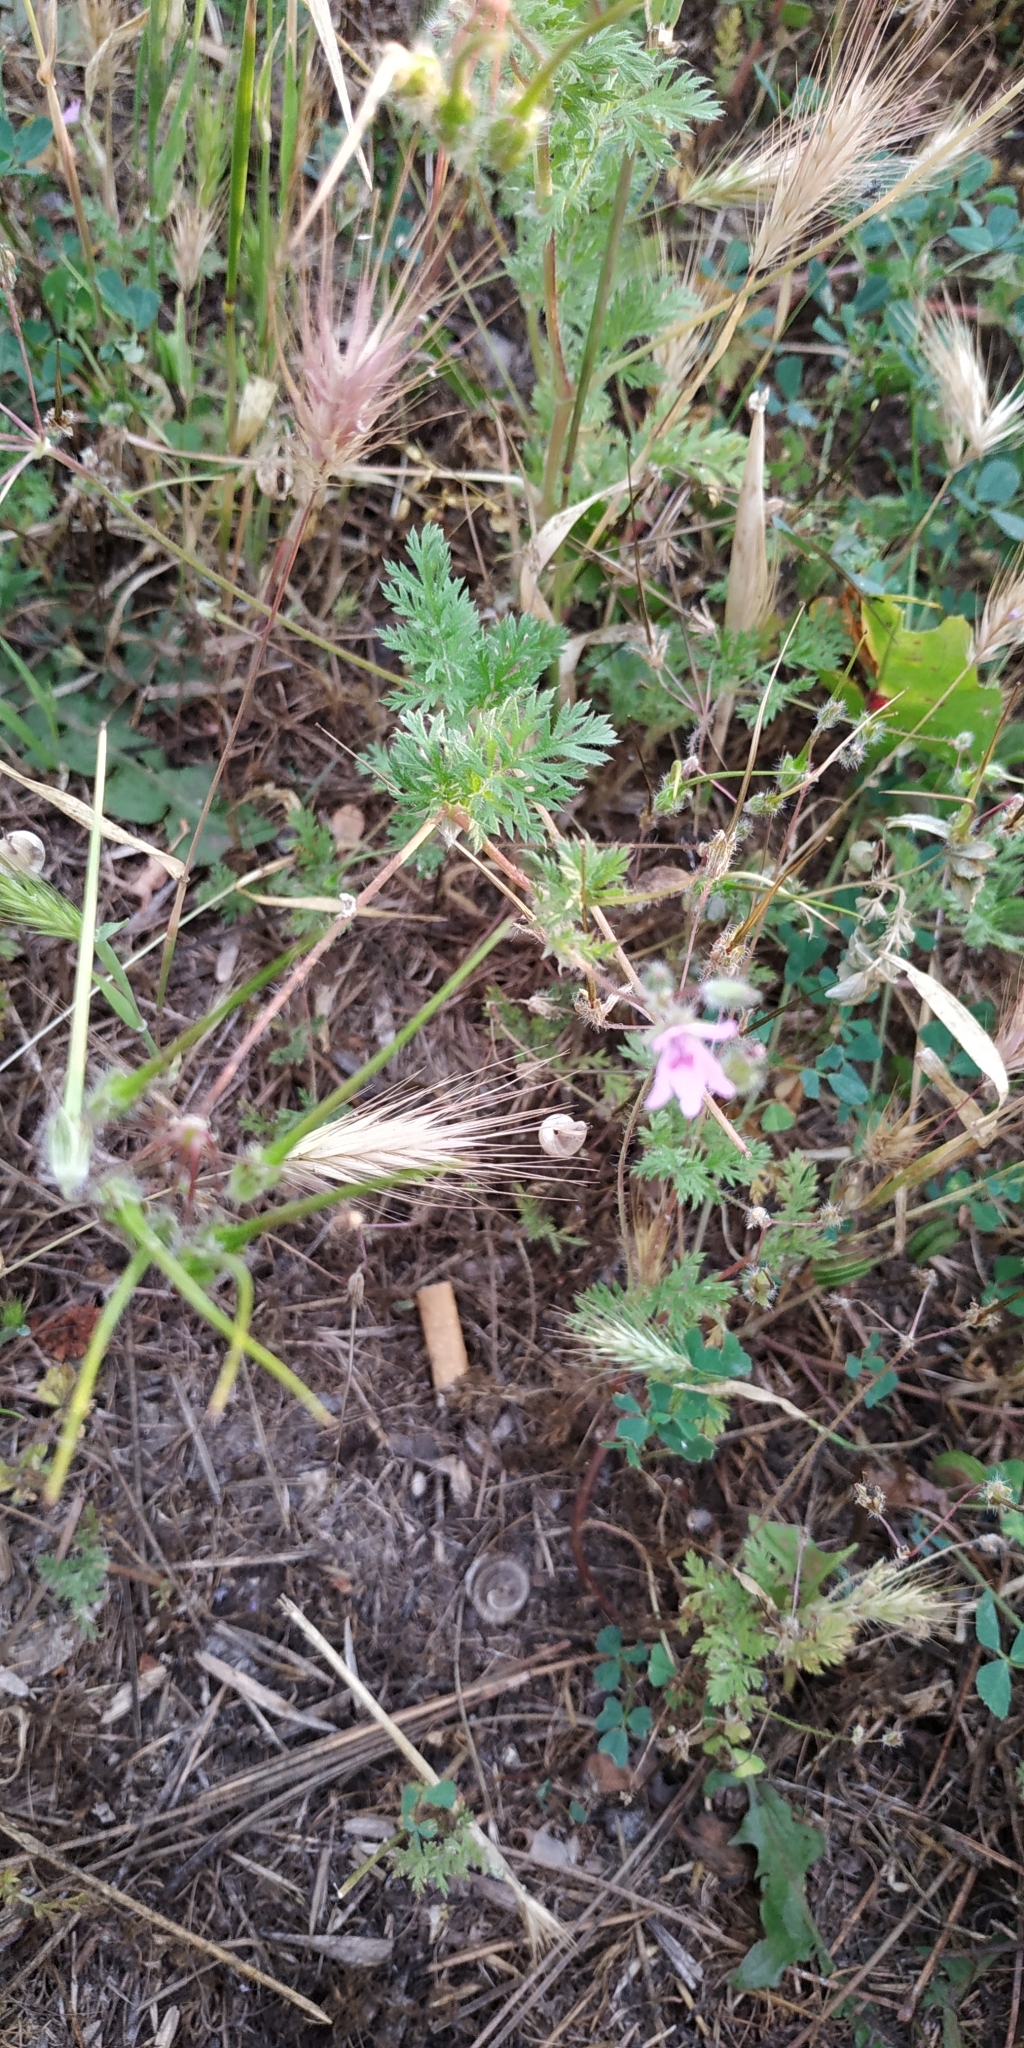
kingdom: Plantae
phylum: Tracheophyta
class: Magnoliopsida
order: Geraniales
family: Geraniaceae
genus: Erodium
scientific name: Erodium cicutarium
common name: Common stork's-bill
